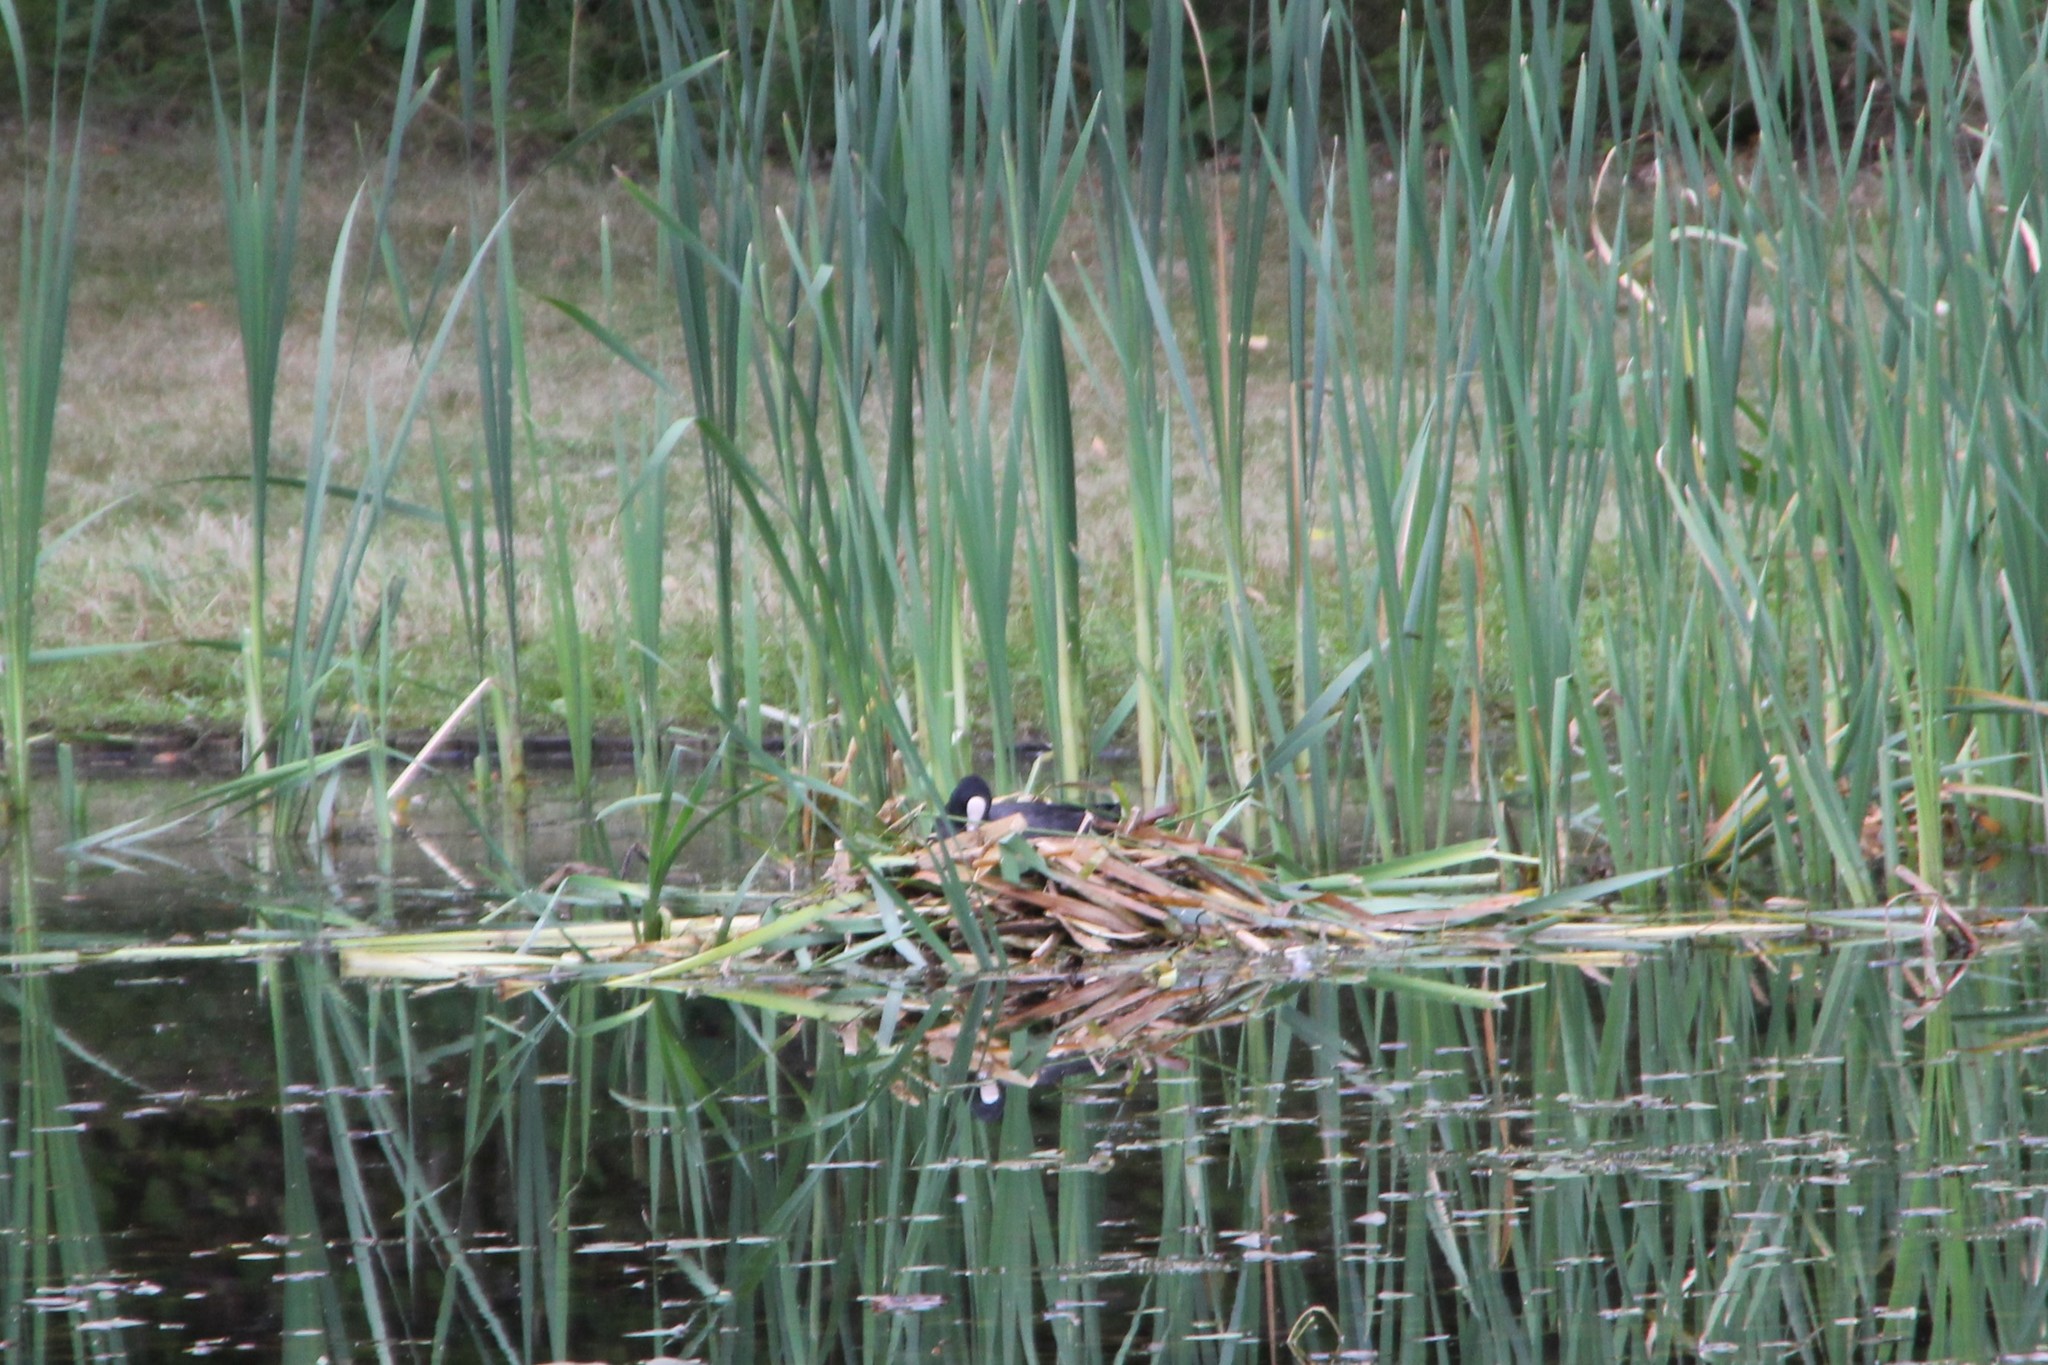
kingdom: Animalia
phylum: Chordata
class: Aves
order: Gruiformes
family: Rallidae
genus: Fulica
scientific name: Fulica atra
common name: Eurasian coot
